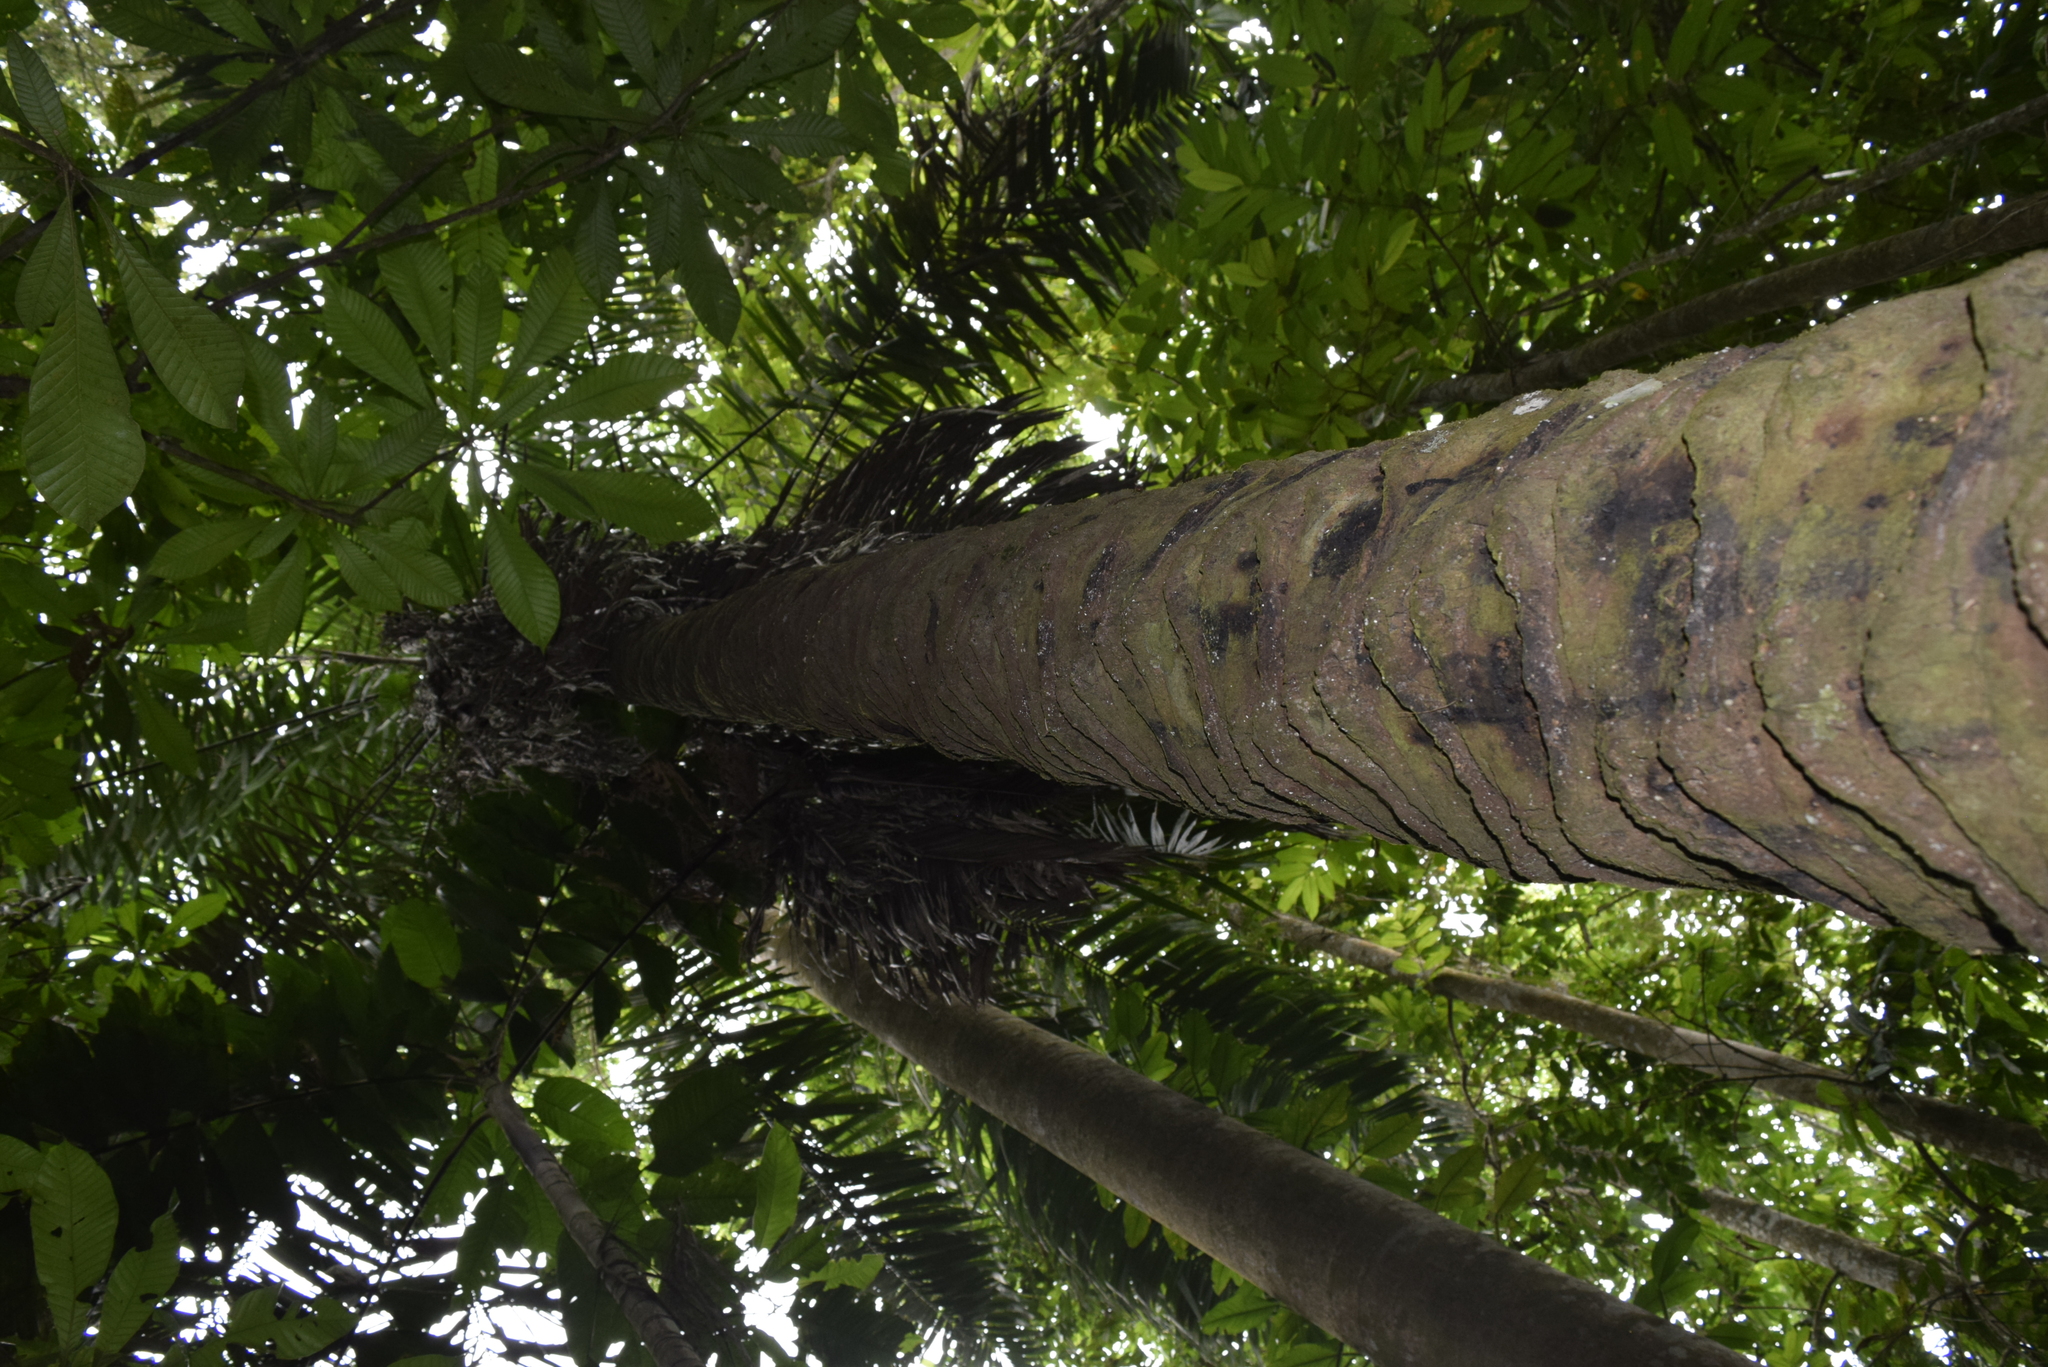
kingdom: Plantae
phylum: Tracheophyta
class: Liliopsida
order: Arecales
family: Arecaceae
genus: Phytelephas
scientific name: Phytelephas aequatorialis
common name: Ivory palm
